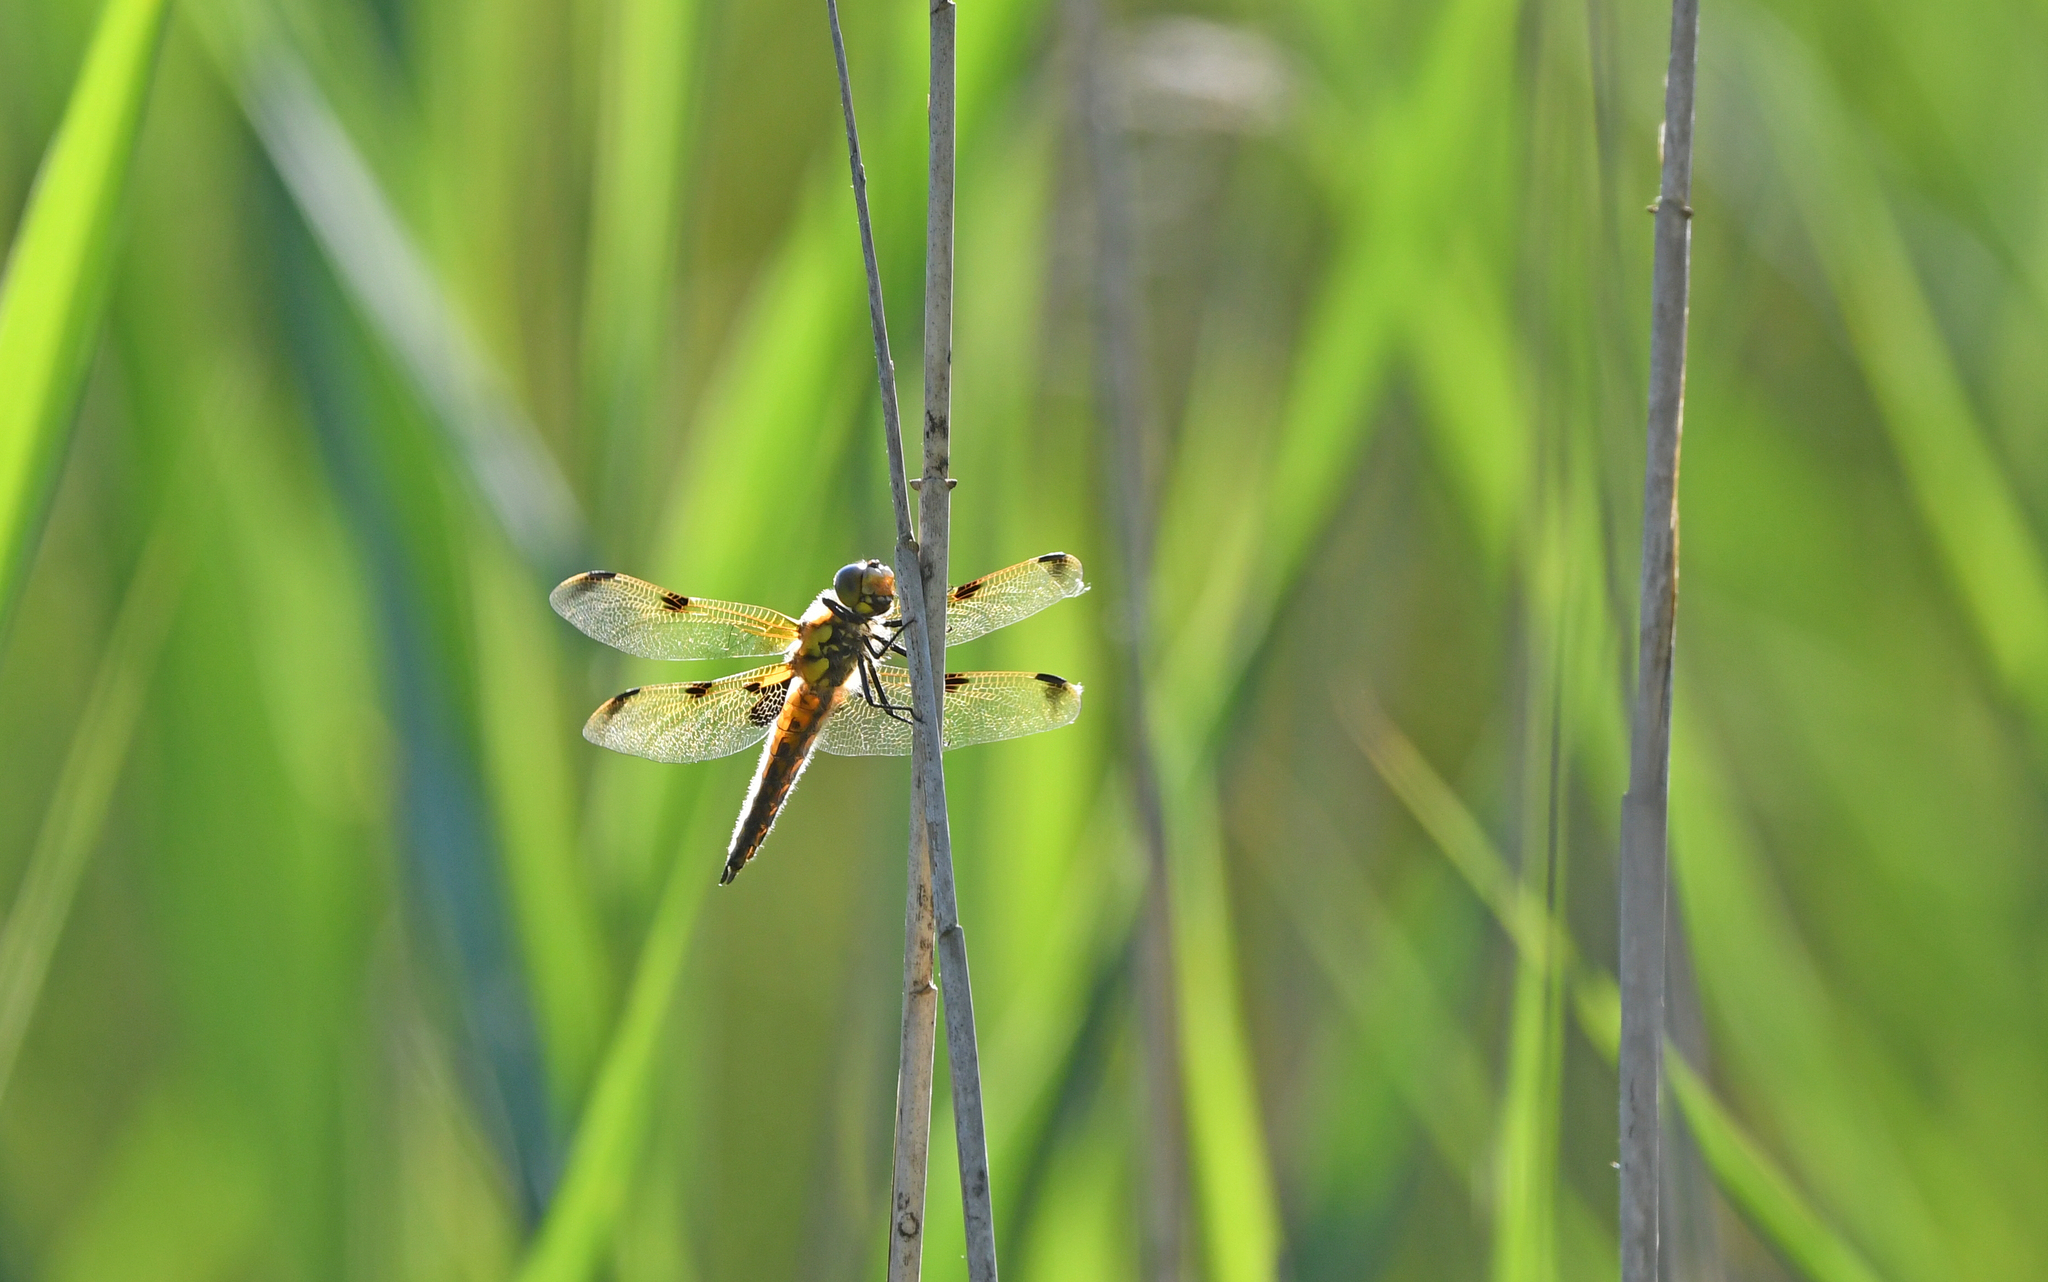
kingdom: Animalia
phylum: Arthropoda
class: Insecta
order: Odonata
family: Libellulidae
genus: Libellula
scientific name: Libellula quadrimaculata
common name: Four-spotted chaser
